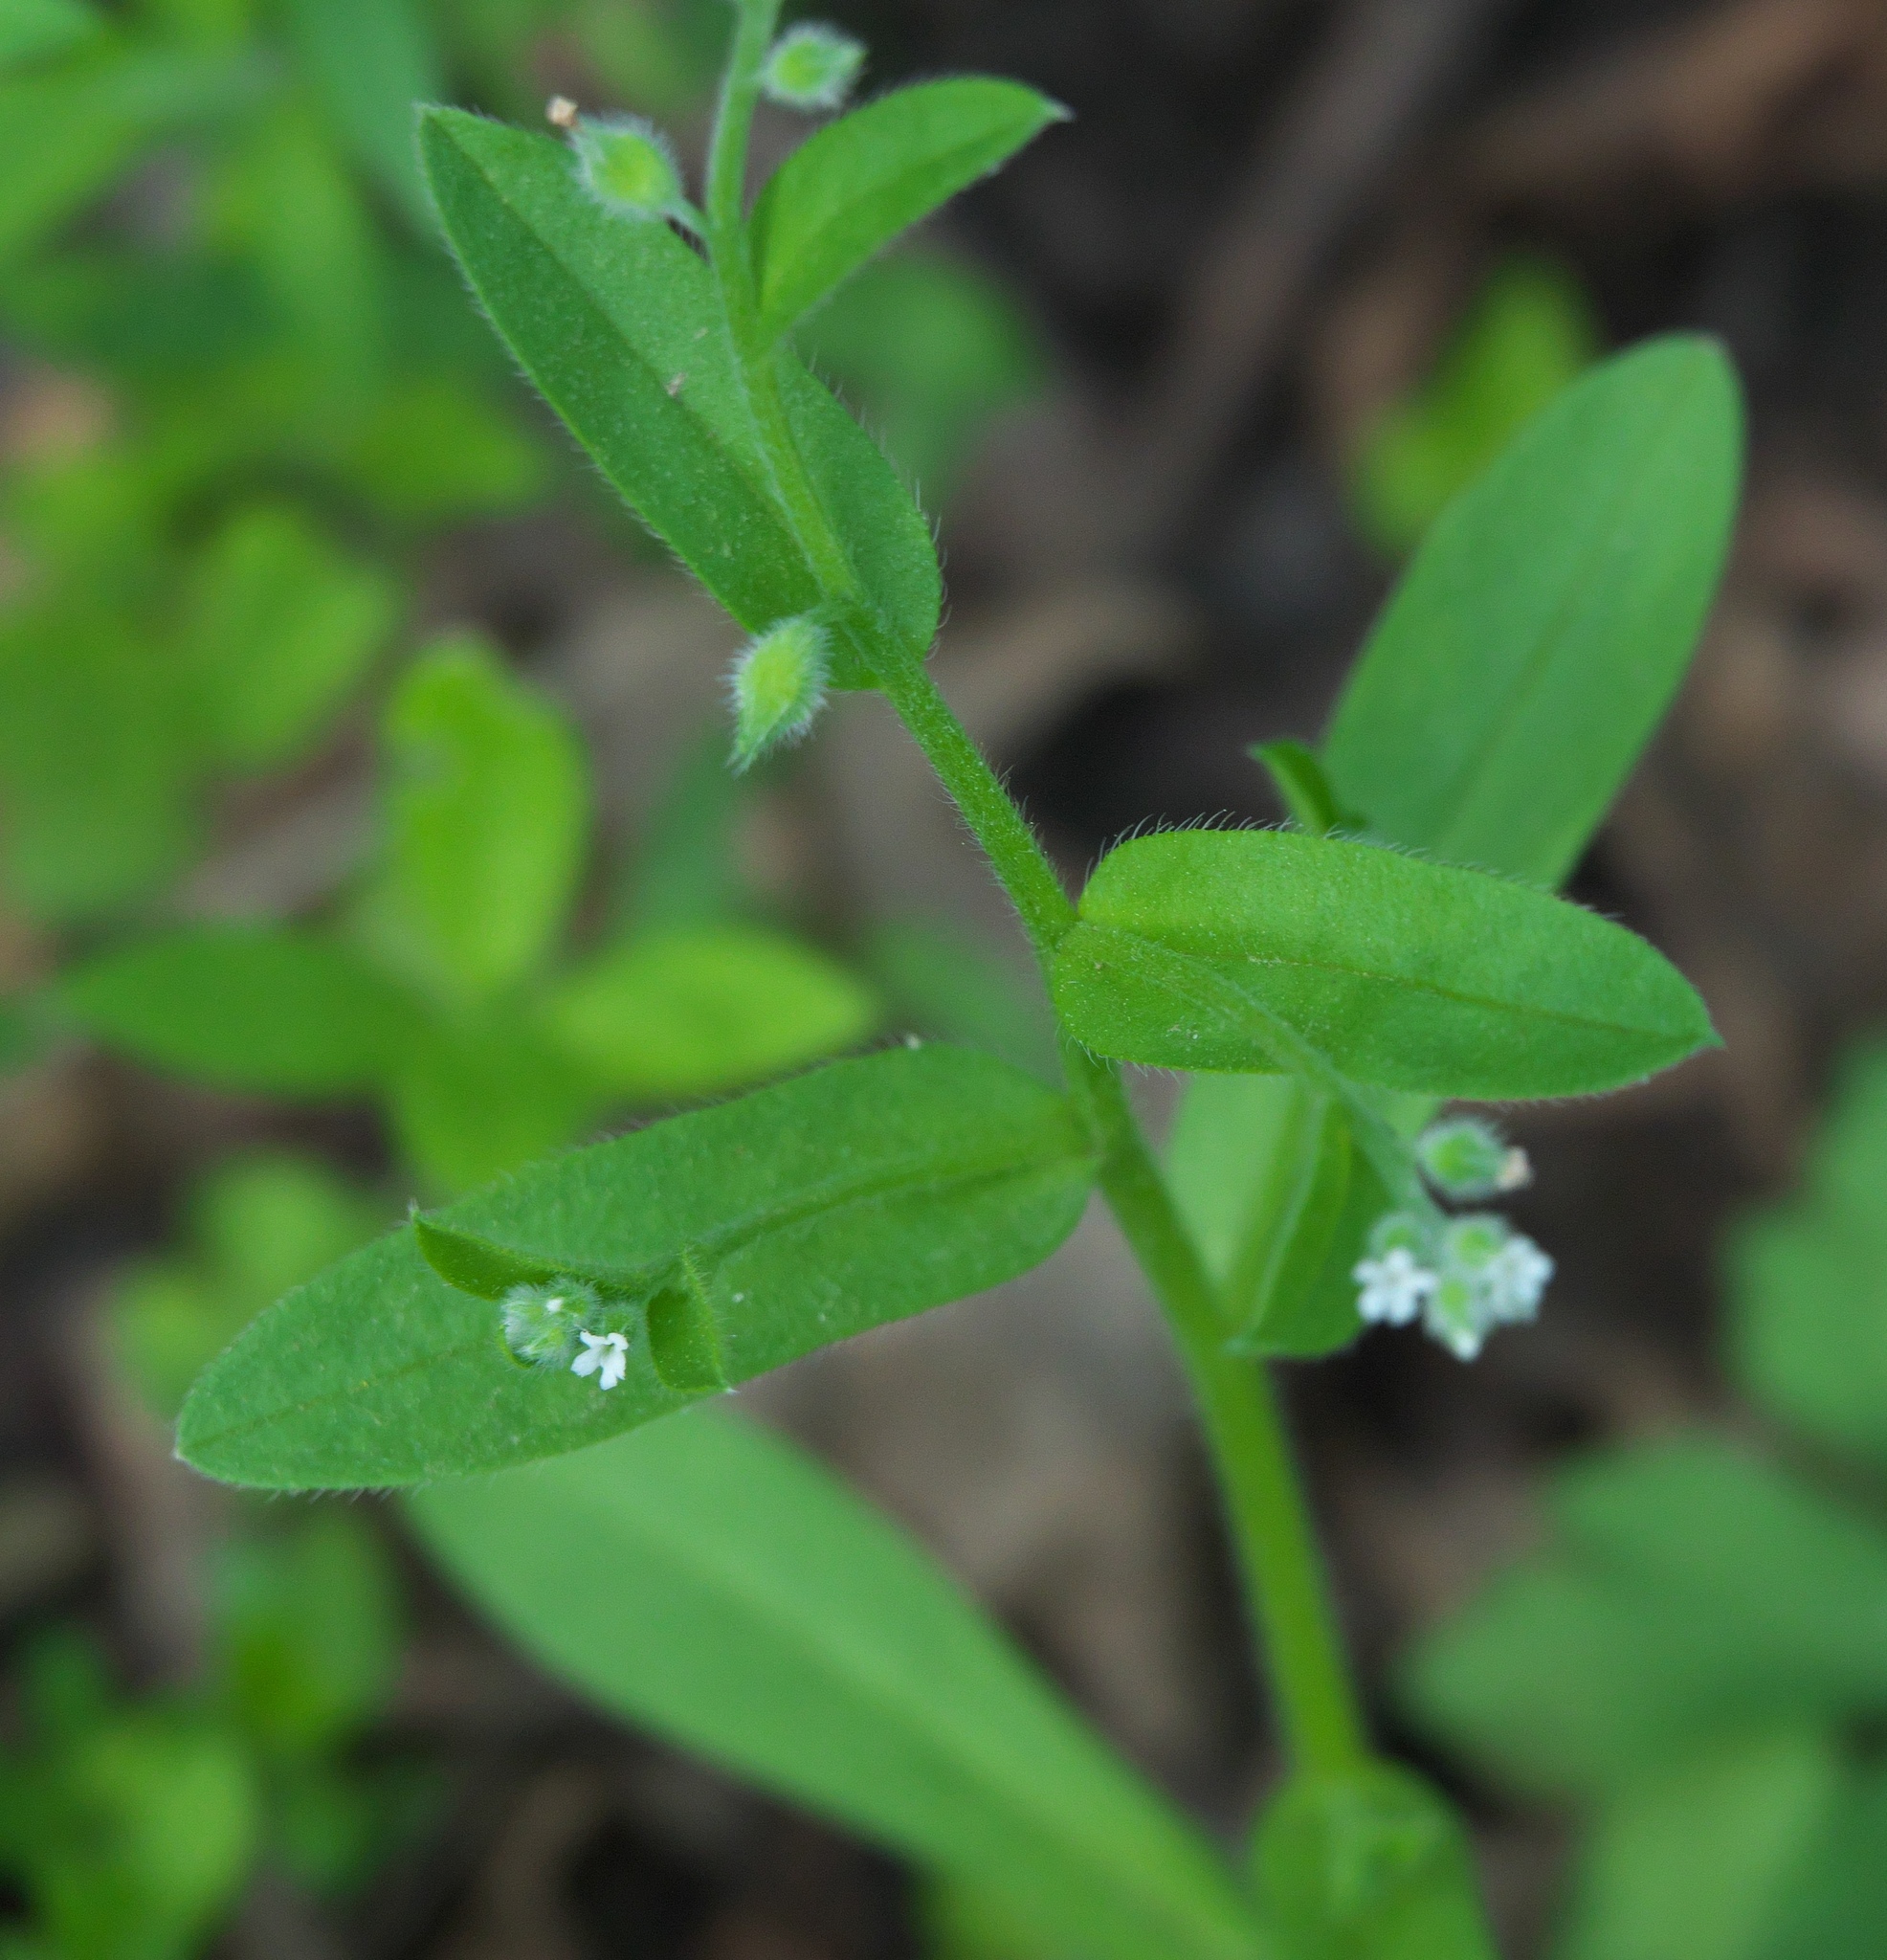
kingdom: Plantae
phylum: Tracheophyta
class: Magnoliopsida
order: Boraginales
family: Boraginaceae
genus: Myosotis
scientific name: Myosotis macrosperma
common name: Large-seed forget-me-not
